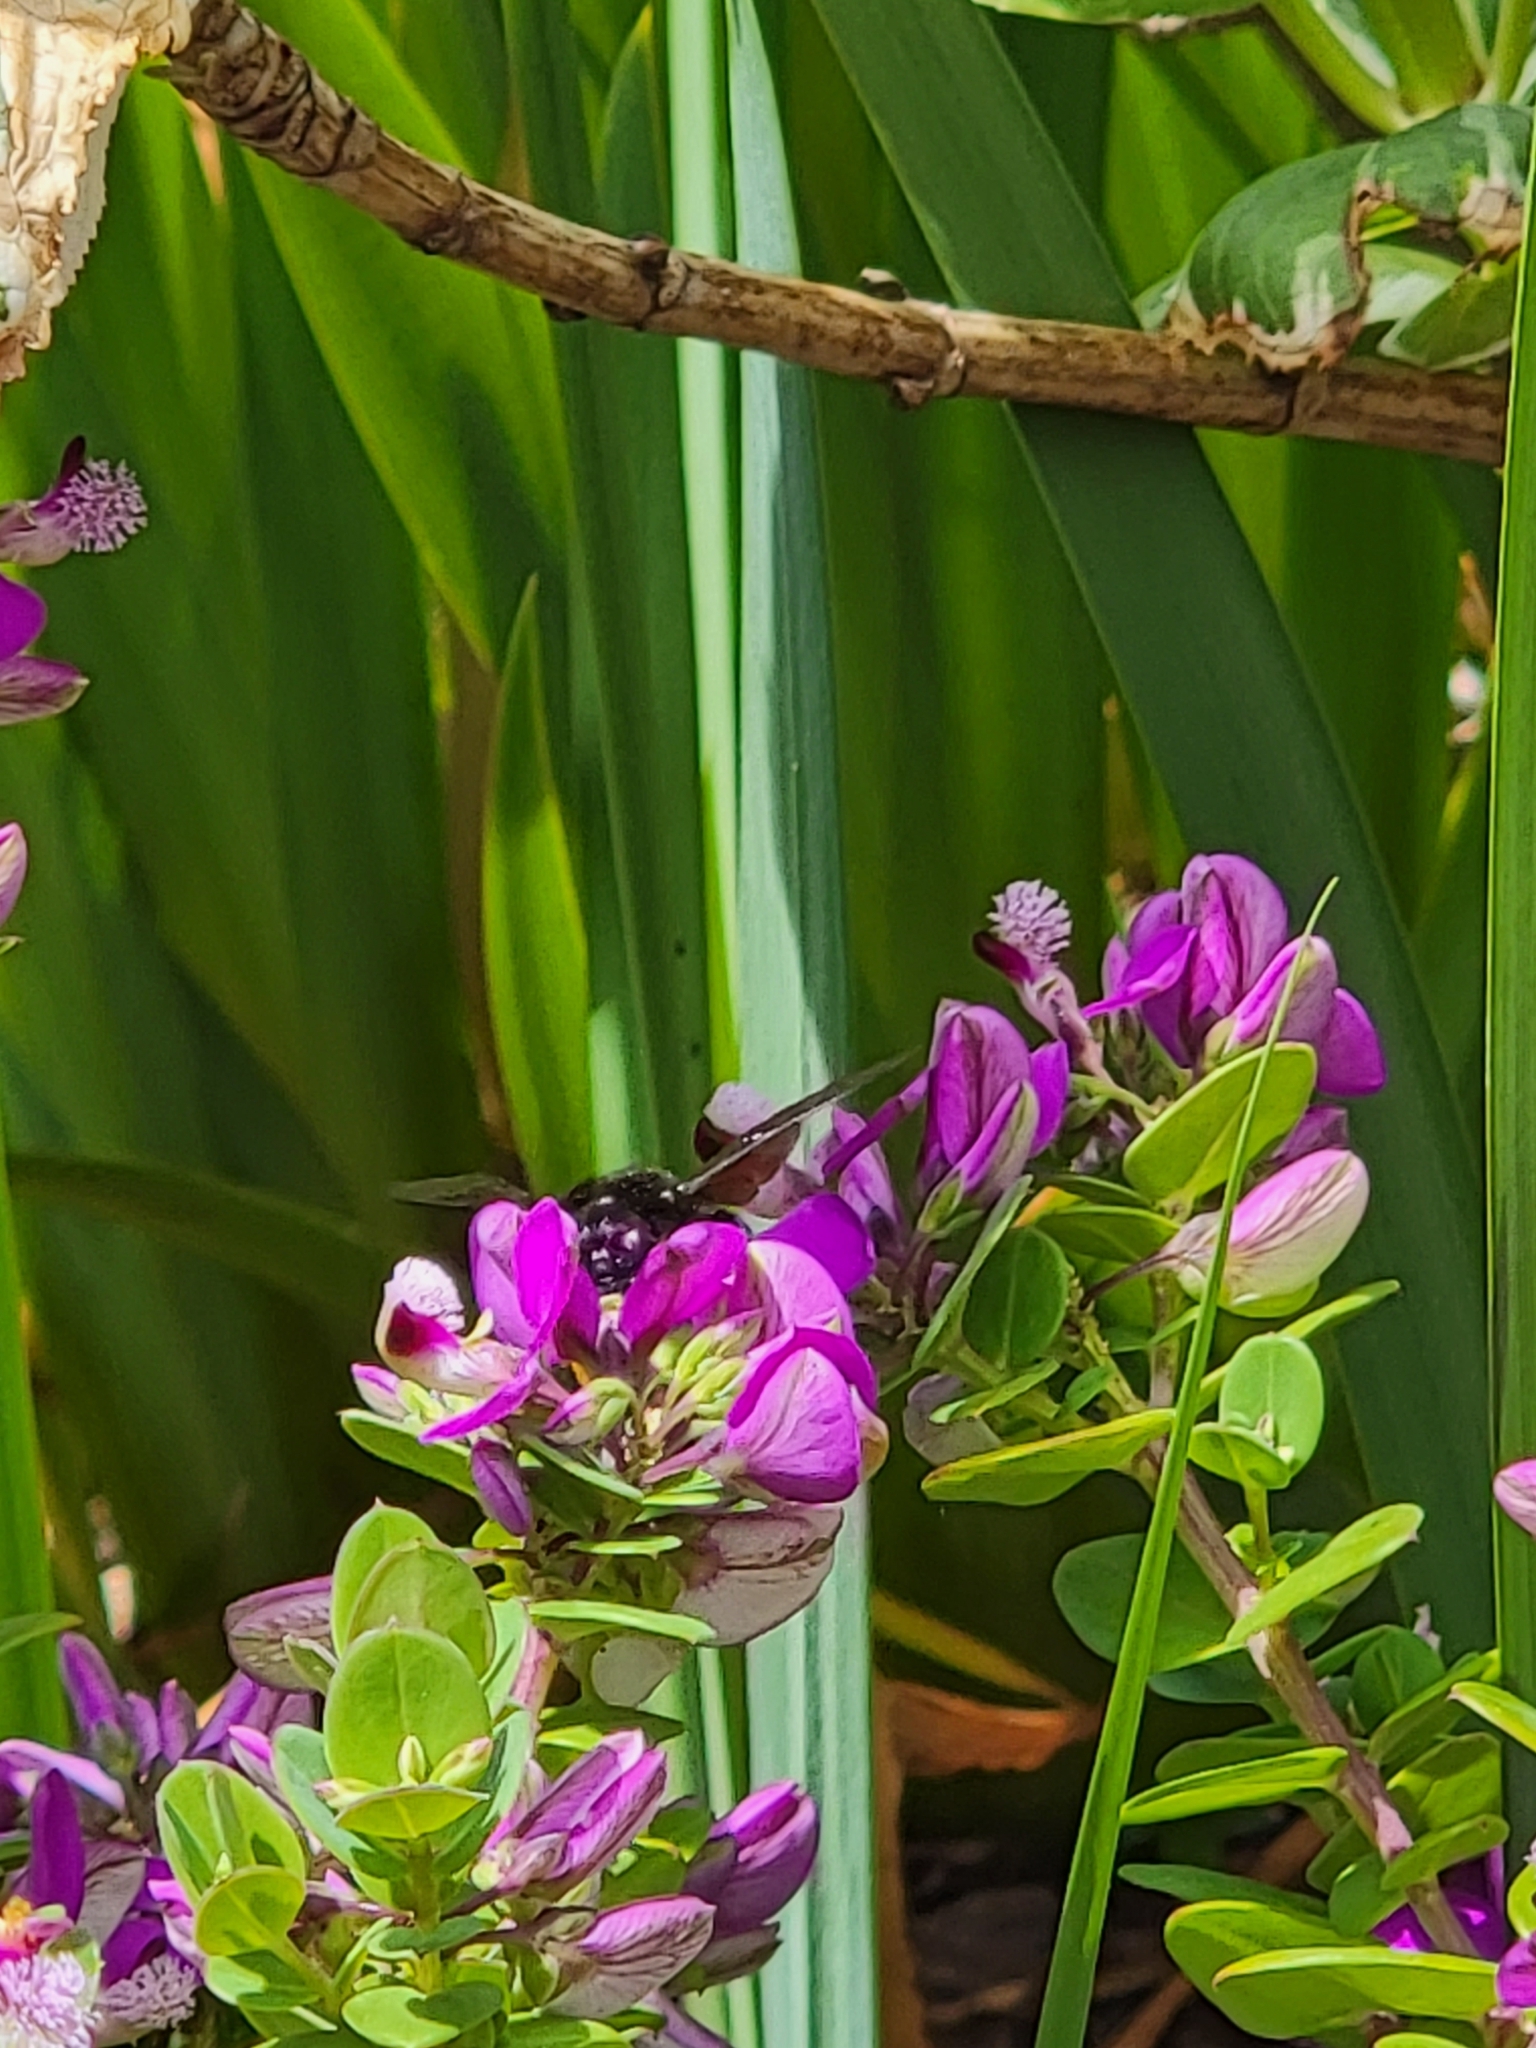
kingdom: Animalia
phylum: Arthropoda
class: Insecta
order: Hymenoptera
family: Apidae
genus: Xylocopa
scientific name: Xylocopa sonorina
